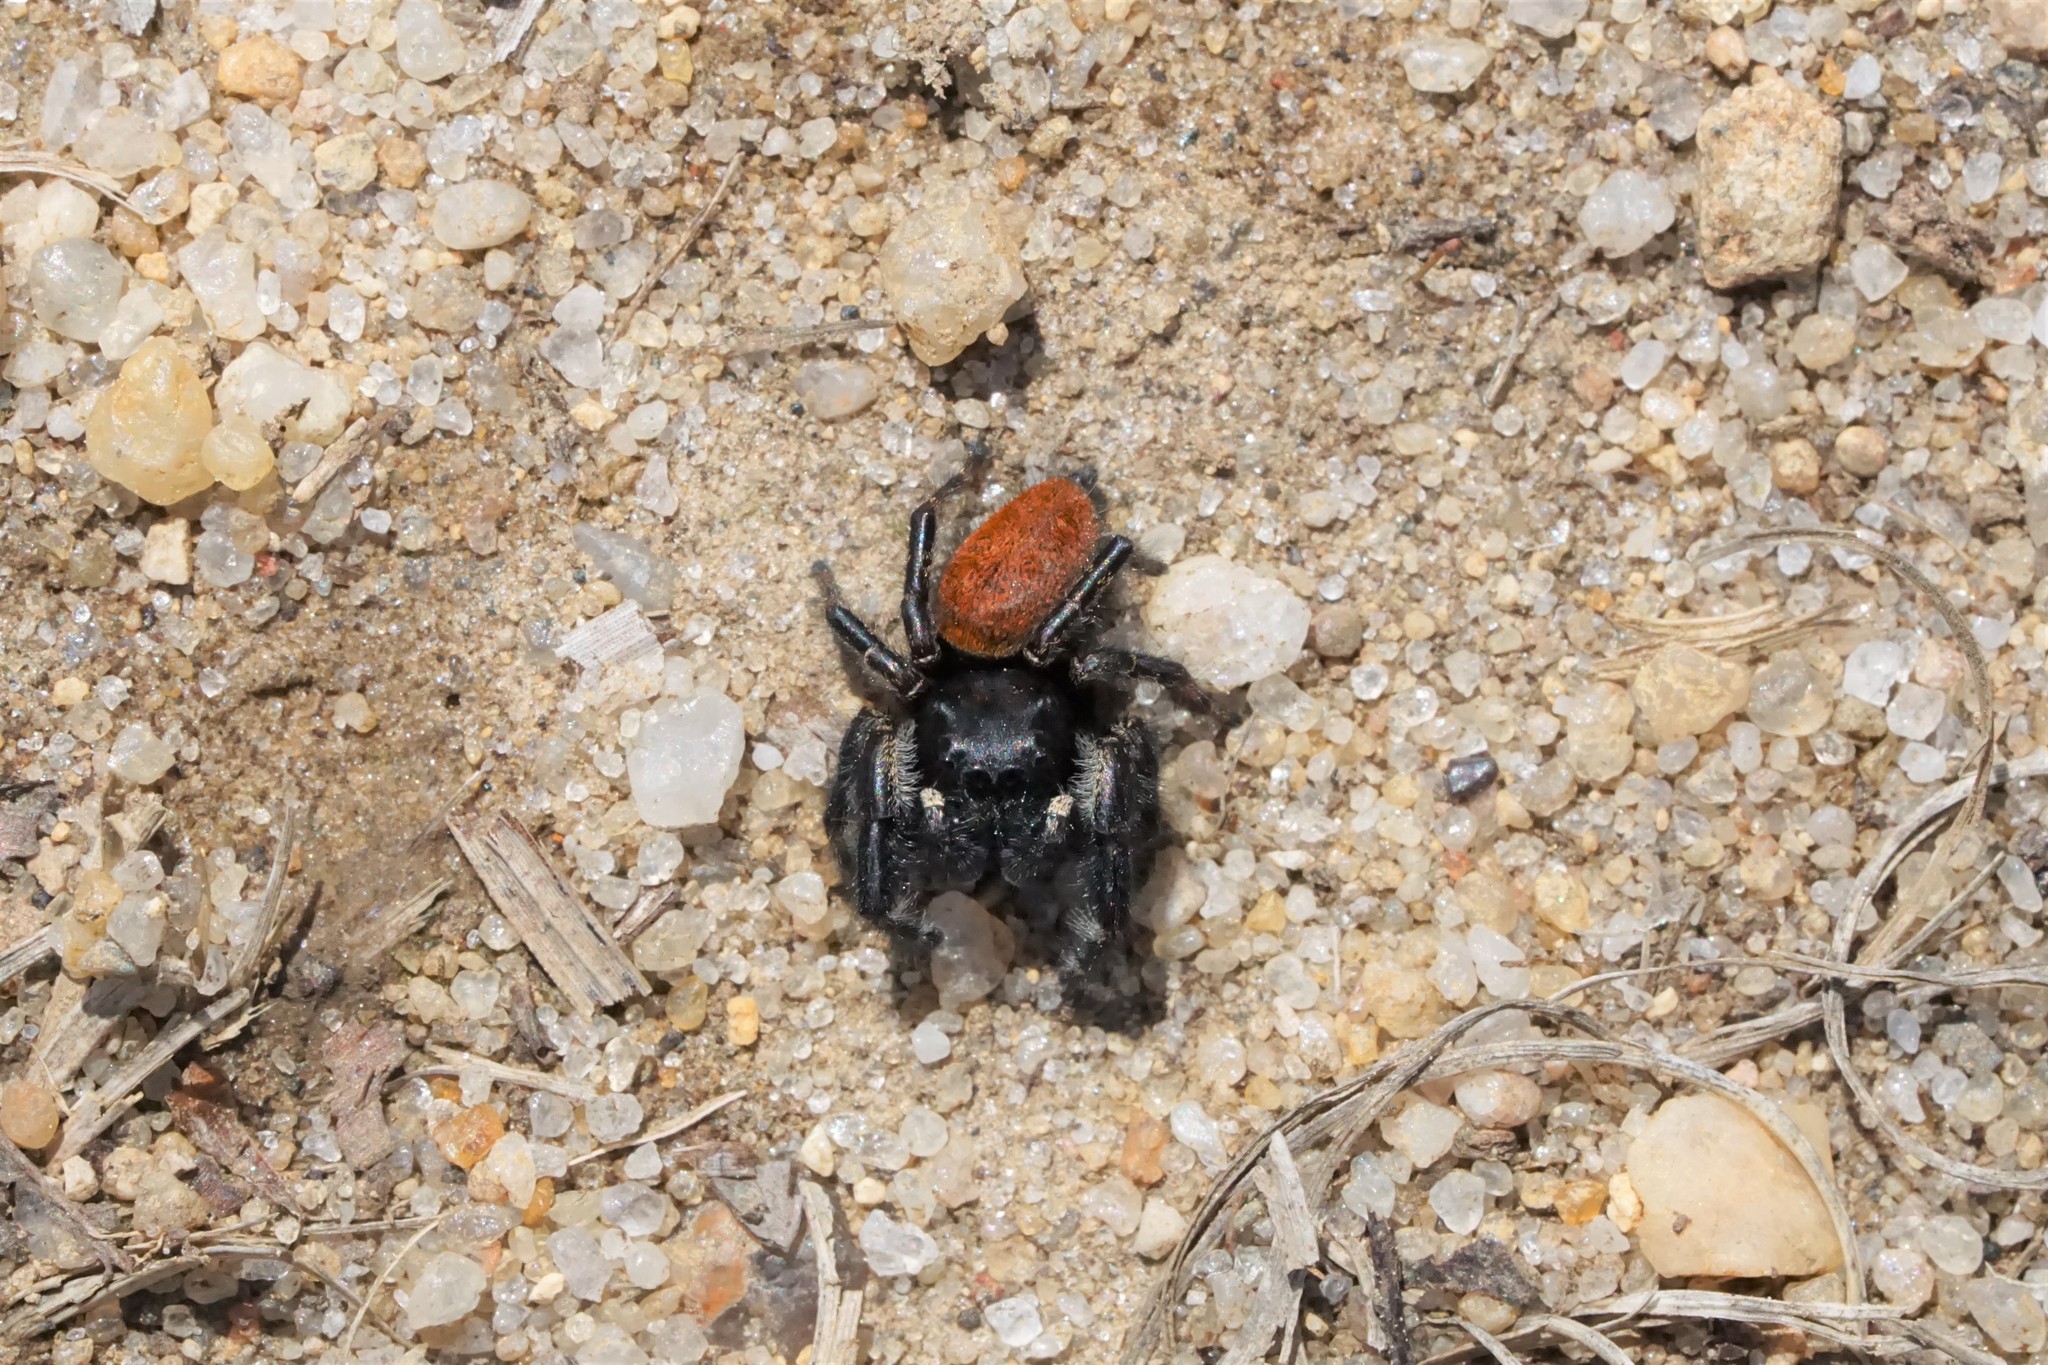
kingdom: Animalia
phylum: Arthropoda
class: Arachnida
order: Araneae
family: Salticidae
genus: Phidippus
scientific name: Phidippus princeps
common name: Grayish jumping spider
